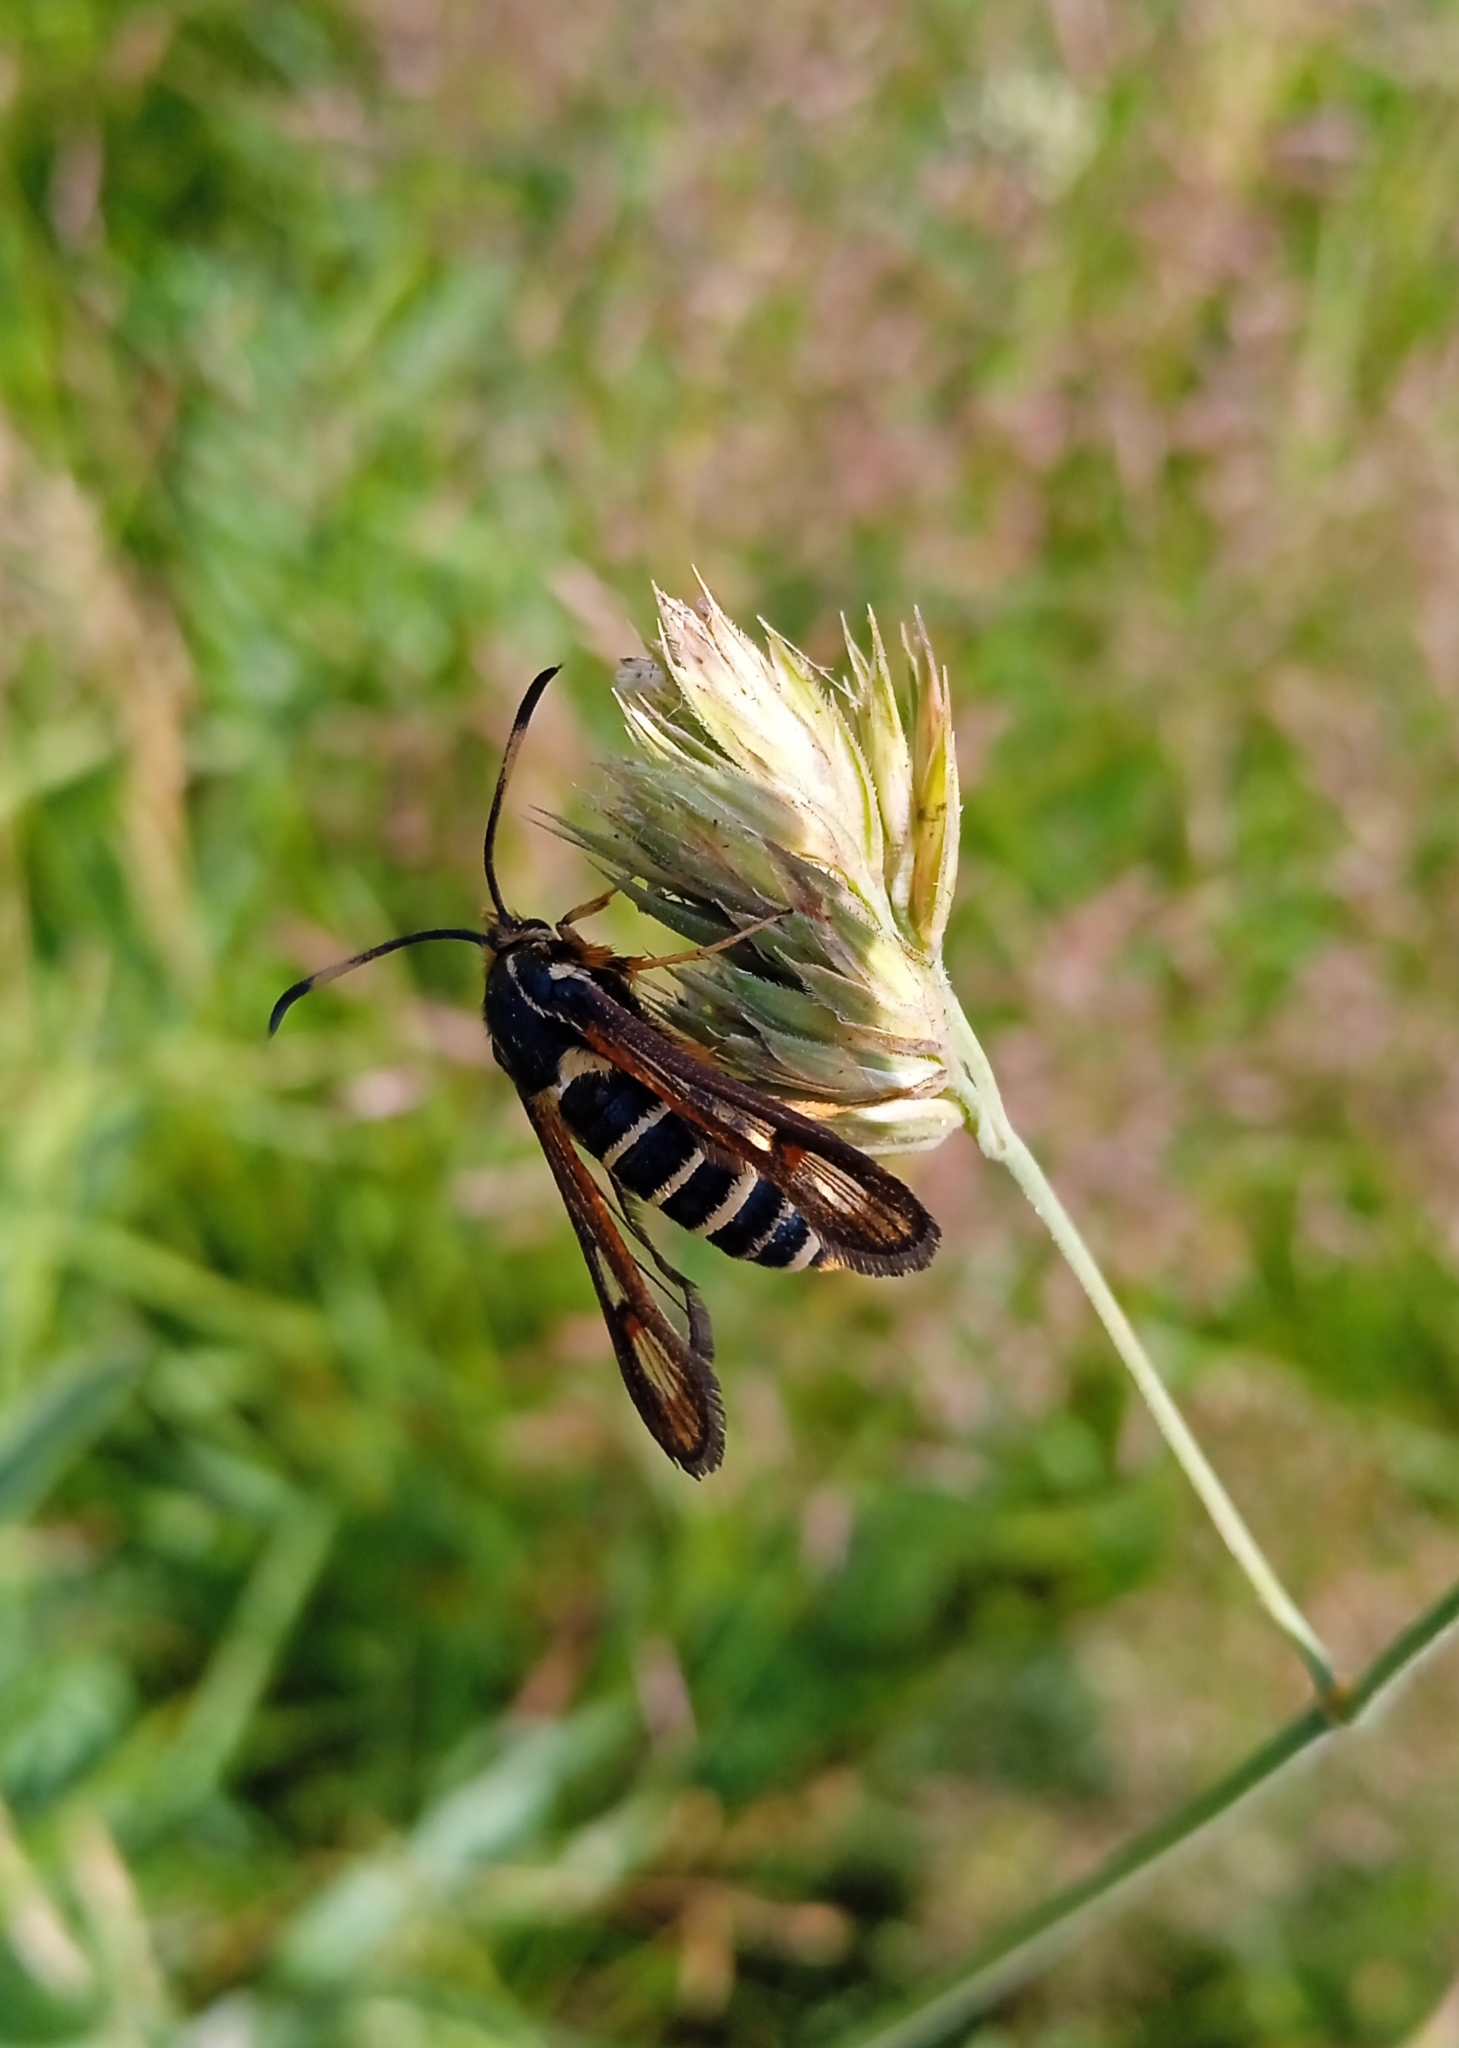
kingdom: Animalia
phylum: Arthropoda
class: Insecta
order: Lepidoptera
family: Sesiidae
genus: Bembecia
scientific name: Bembecia ichneumoniformis
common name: Six-belted clearwing
